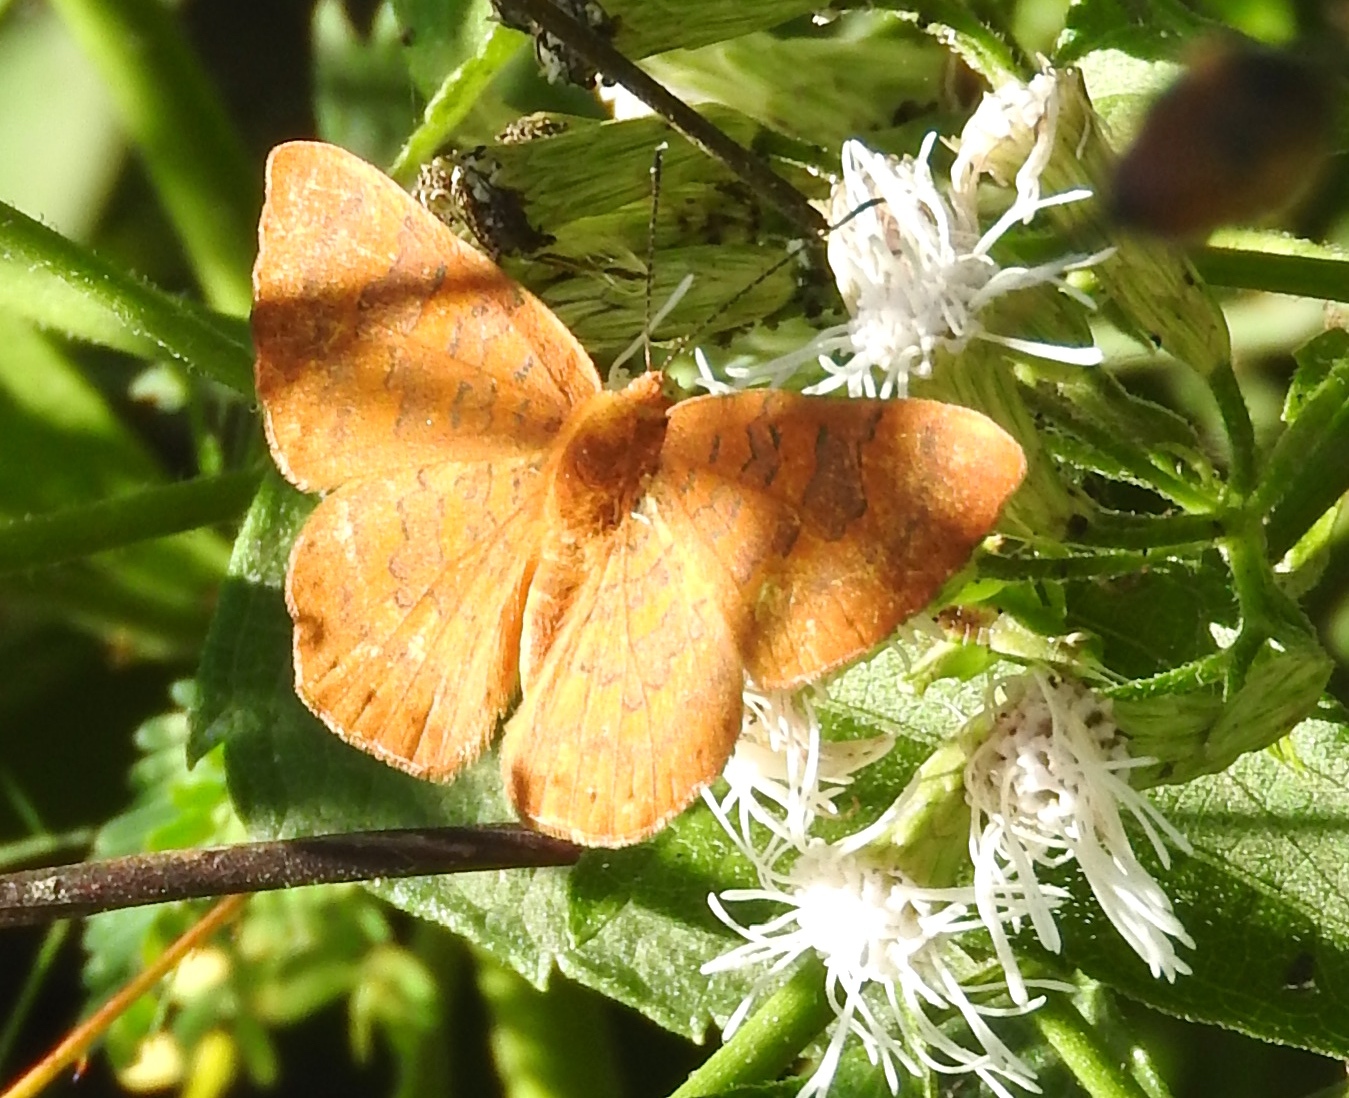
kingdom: Animalia
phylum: Arthropoda
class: Insecta
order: Lepidoptera
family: Lycaenidae
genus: Emesis
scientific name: Emesis
